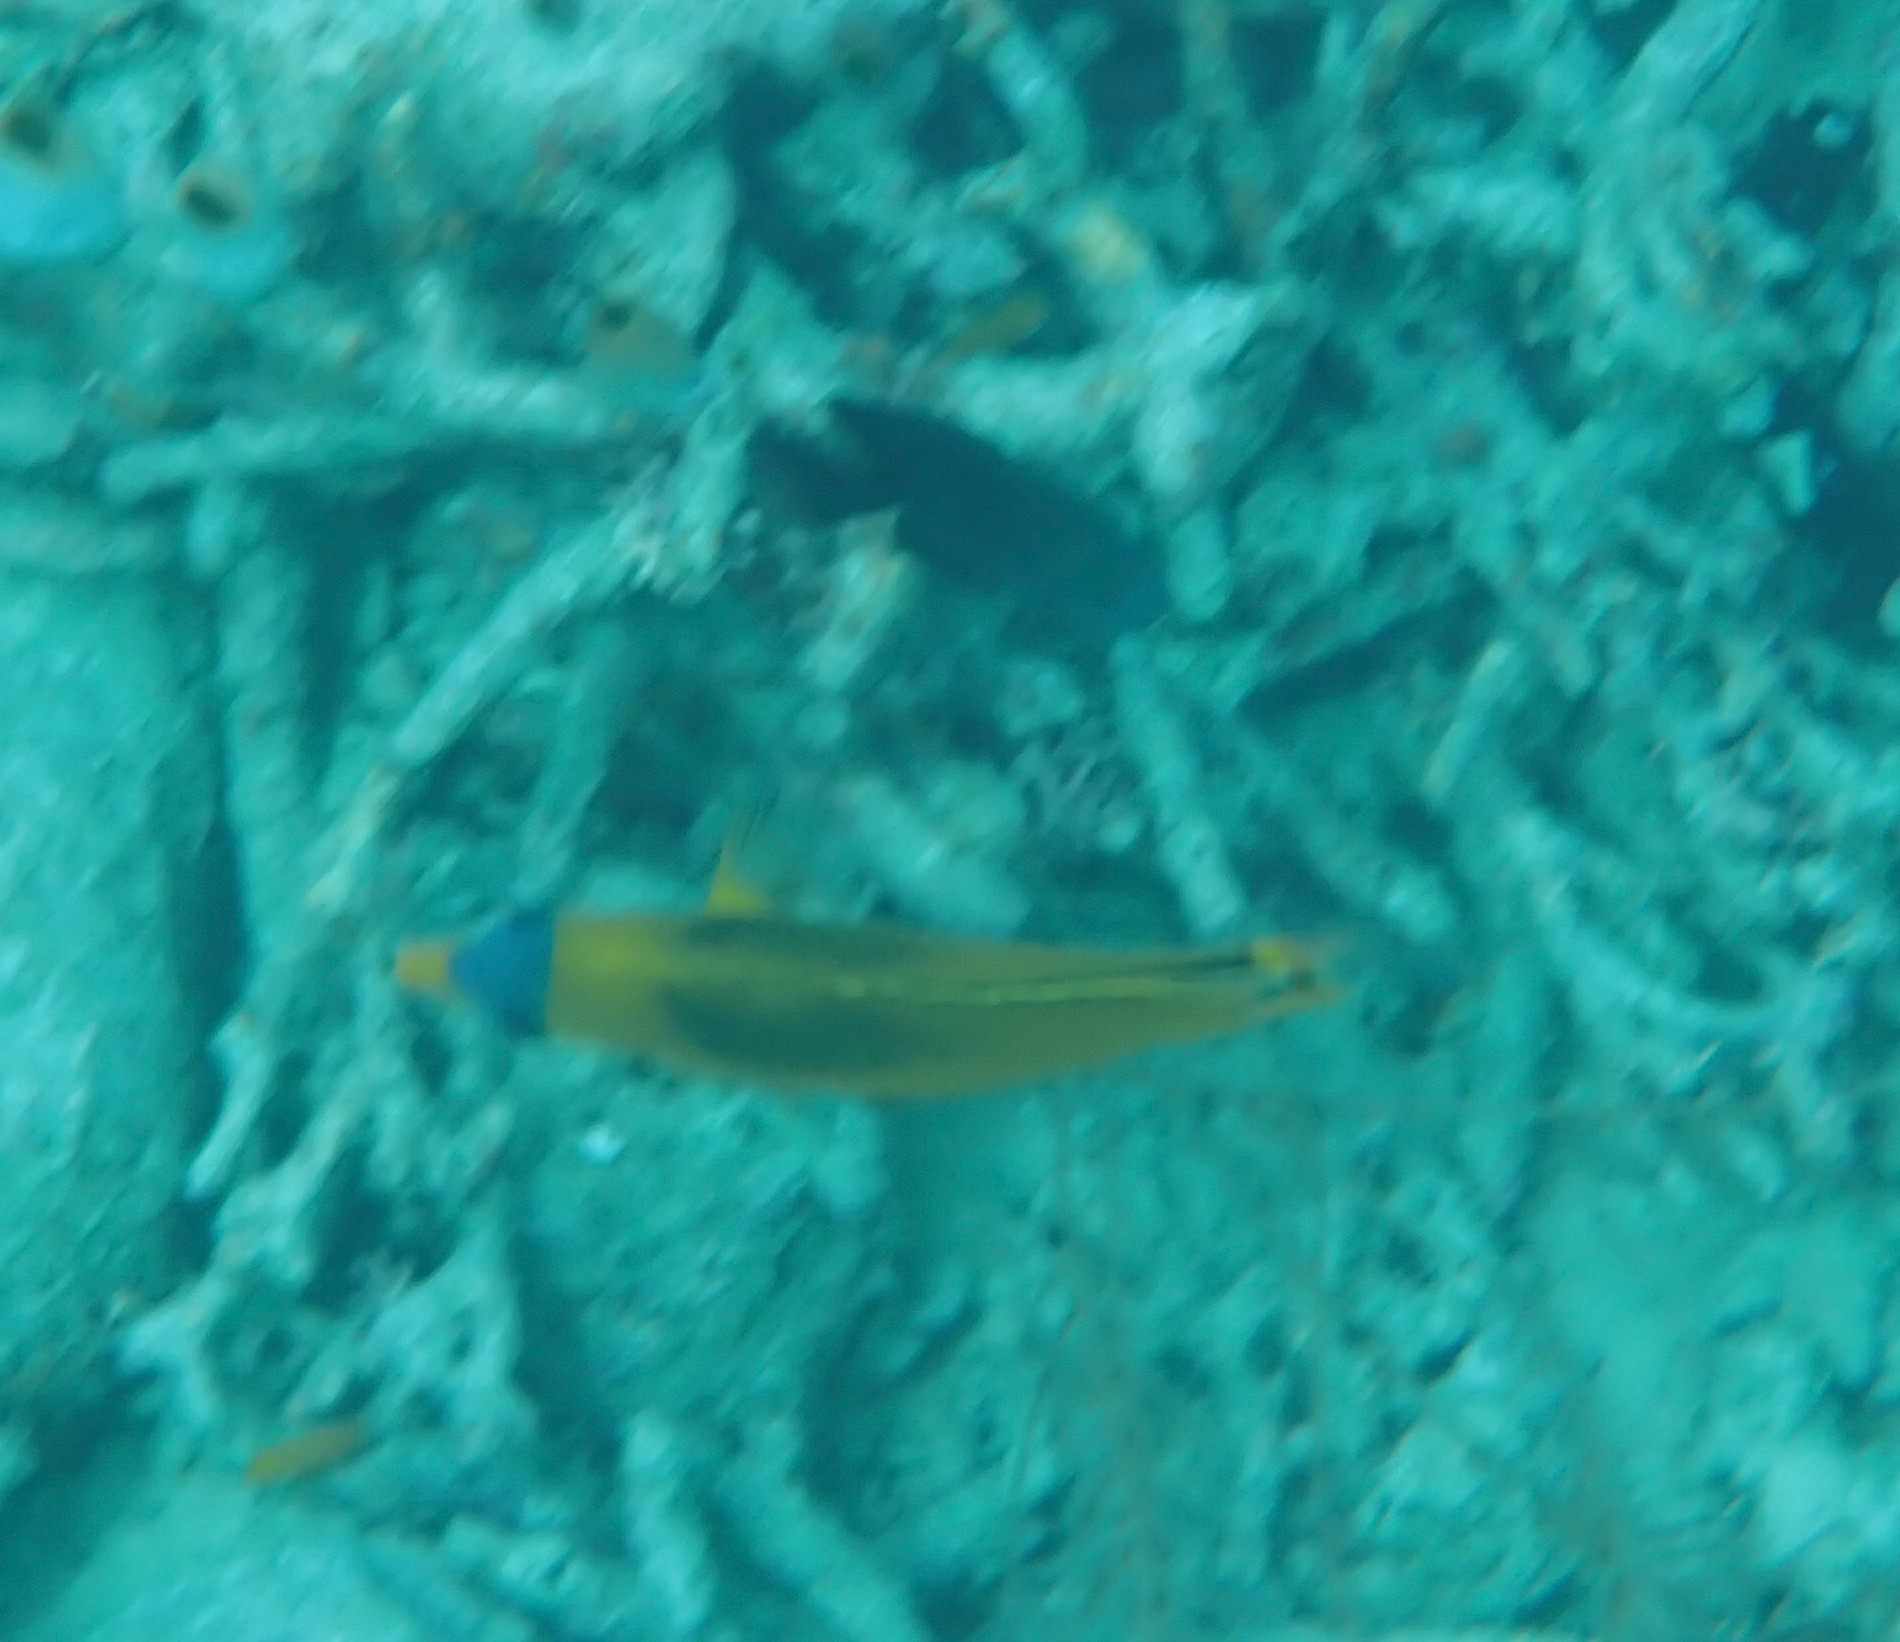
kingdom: Animalia
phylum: Chordata
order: Perciformes
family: Chaetodontidae
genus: Chaetodon
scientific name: Chaetodon rafflesii
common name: Latticed butterflyfish
